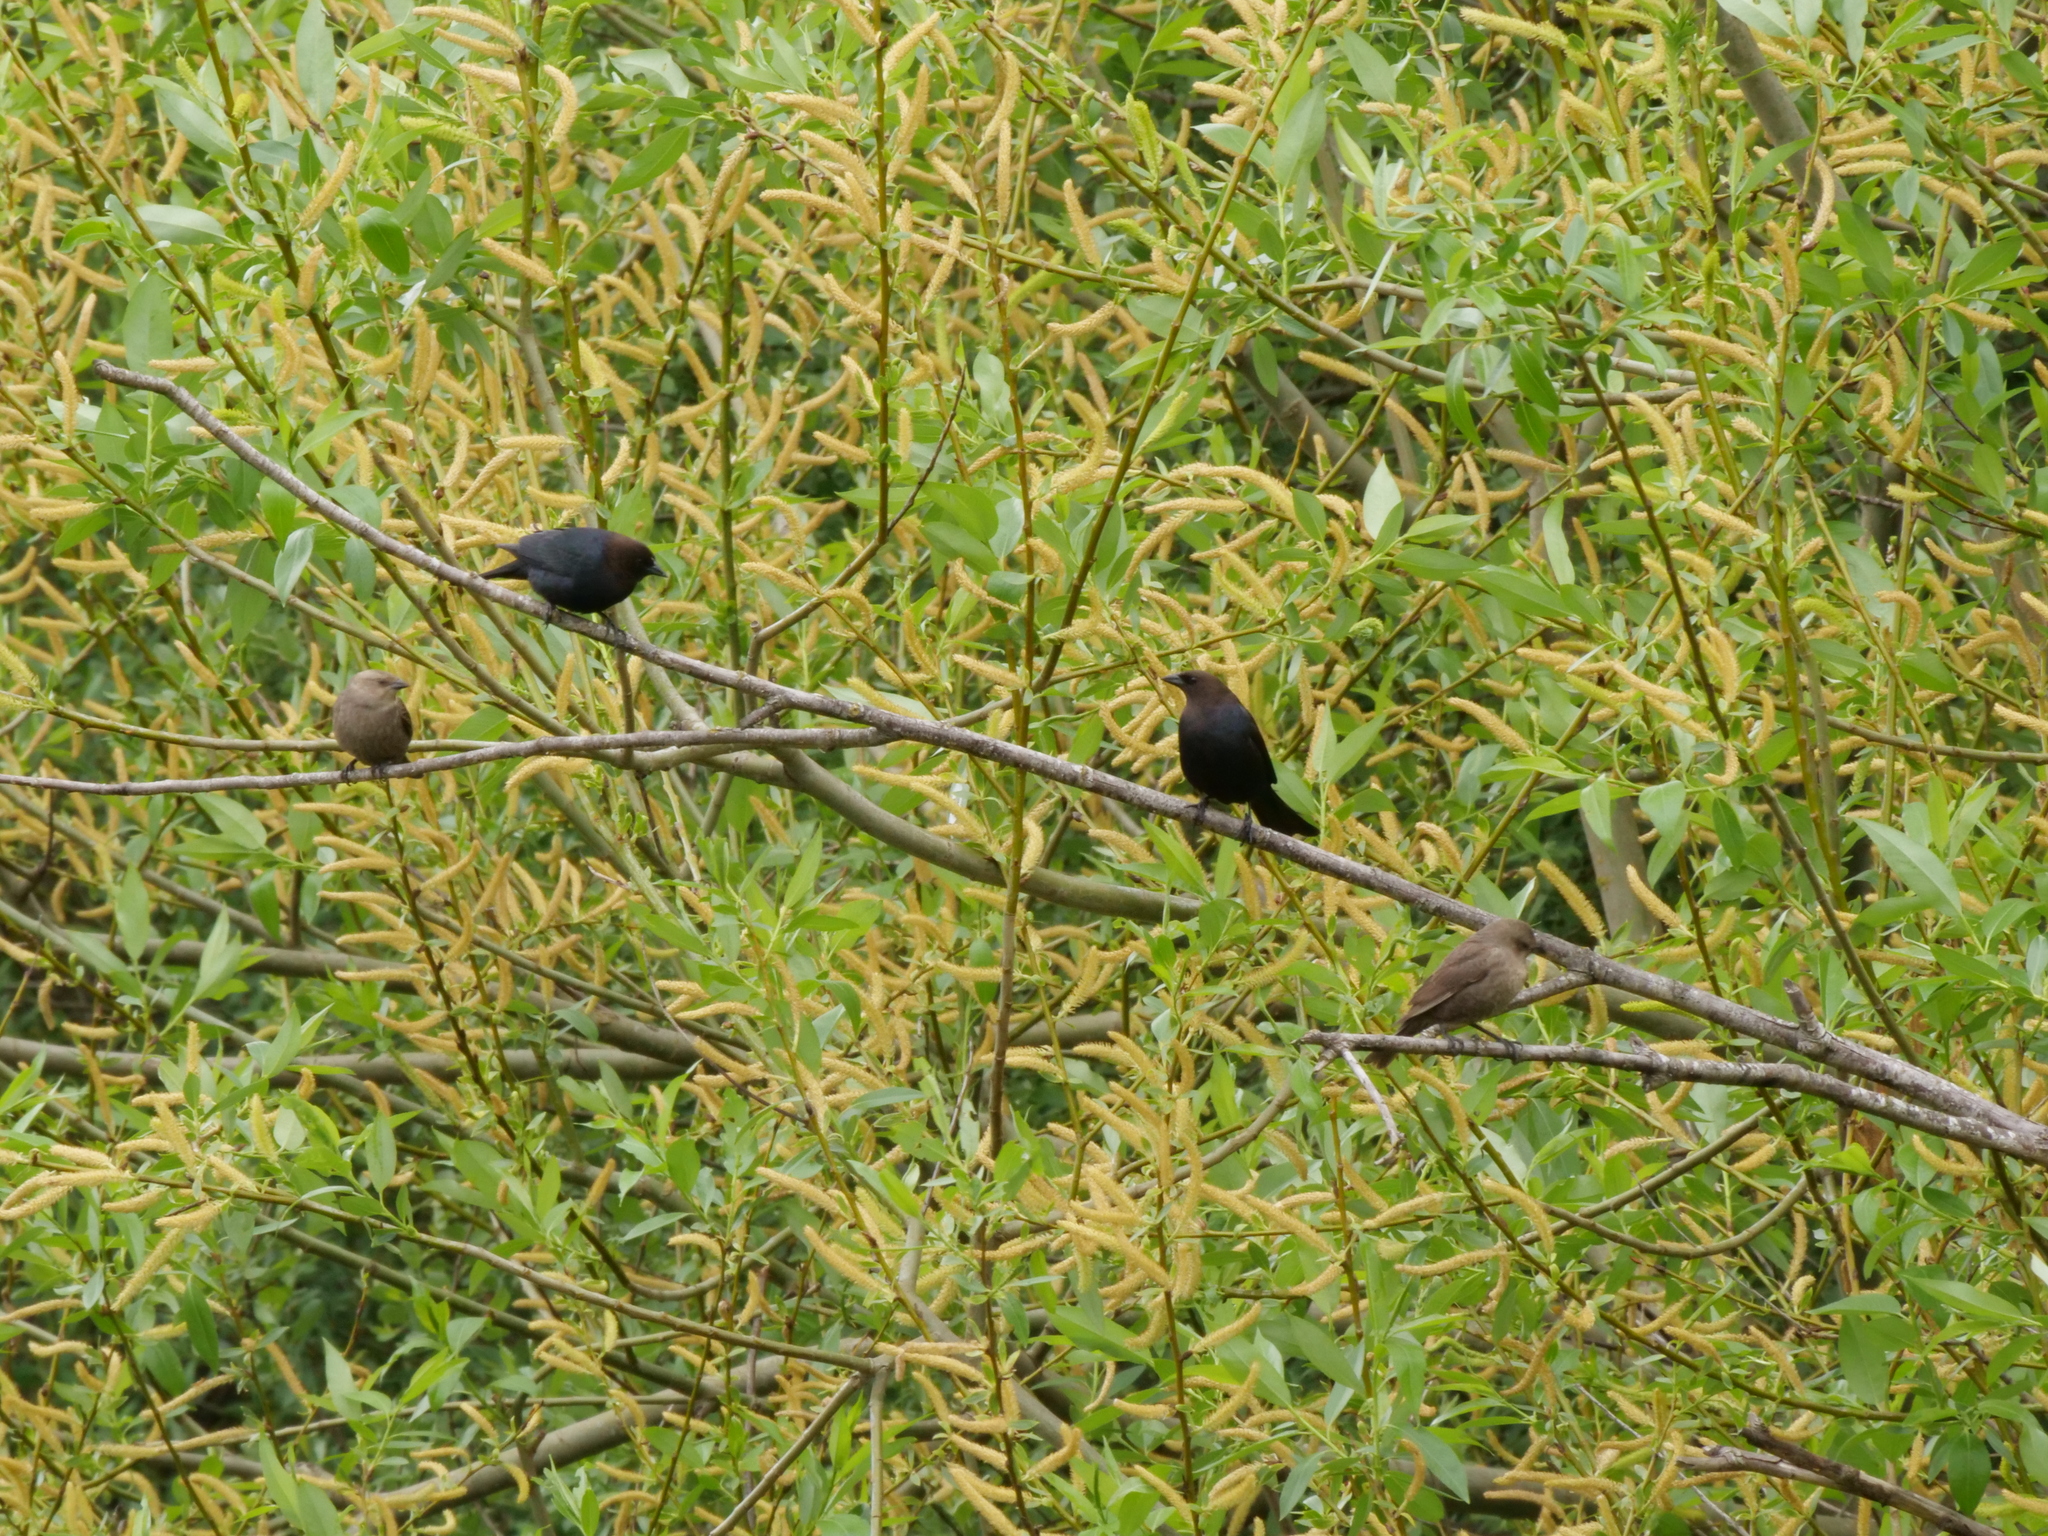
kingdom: Animalia
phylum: Chordata
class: Aves
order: Passeriformes
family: Icteridae
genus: Molothrus
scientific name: Molothrus ater
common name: Brown-headed cowbird
